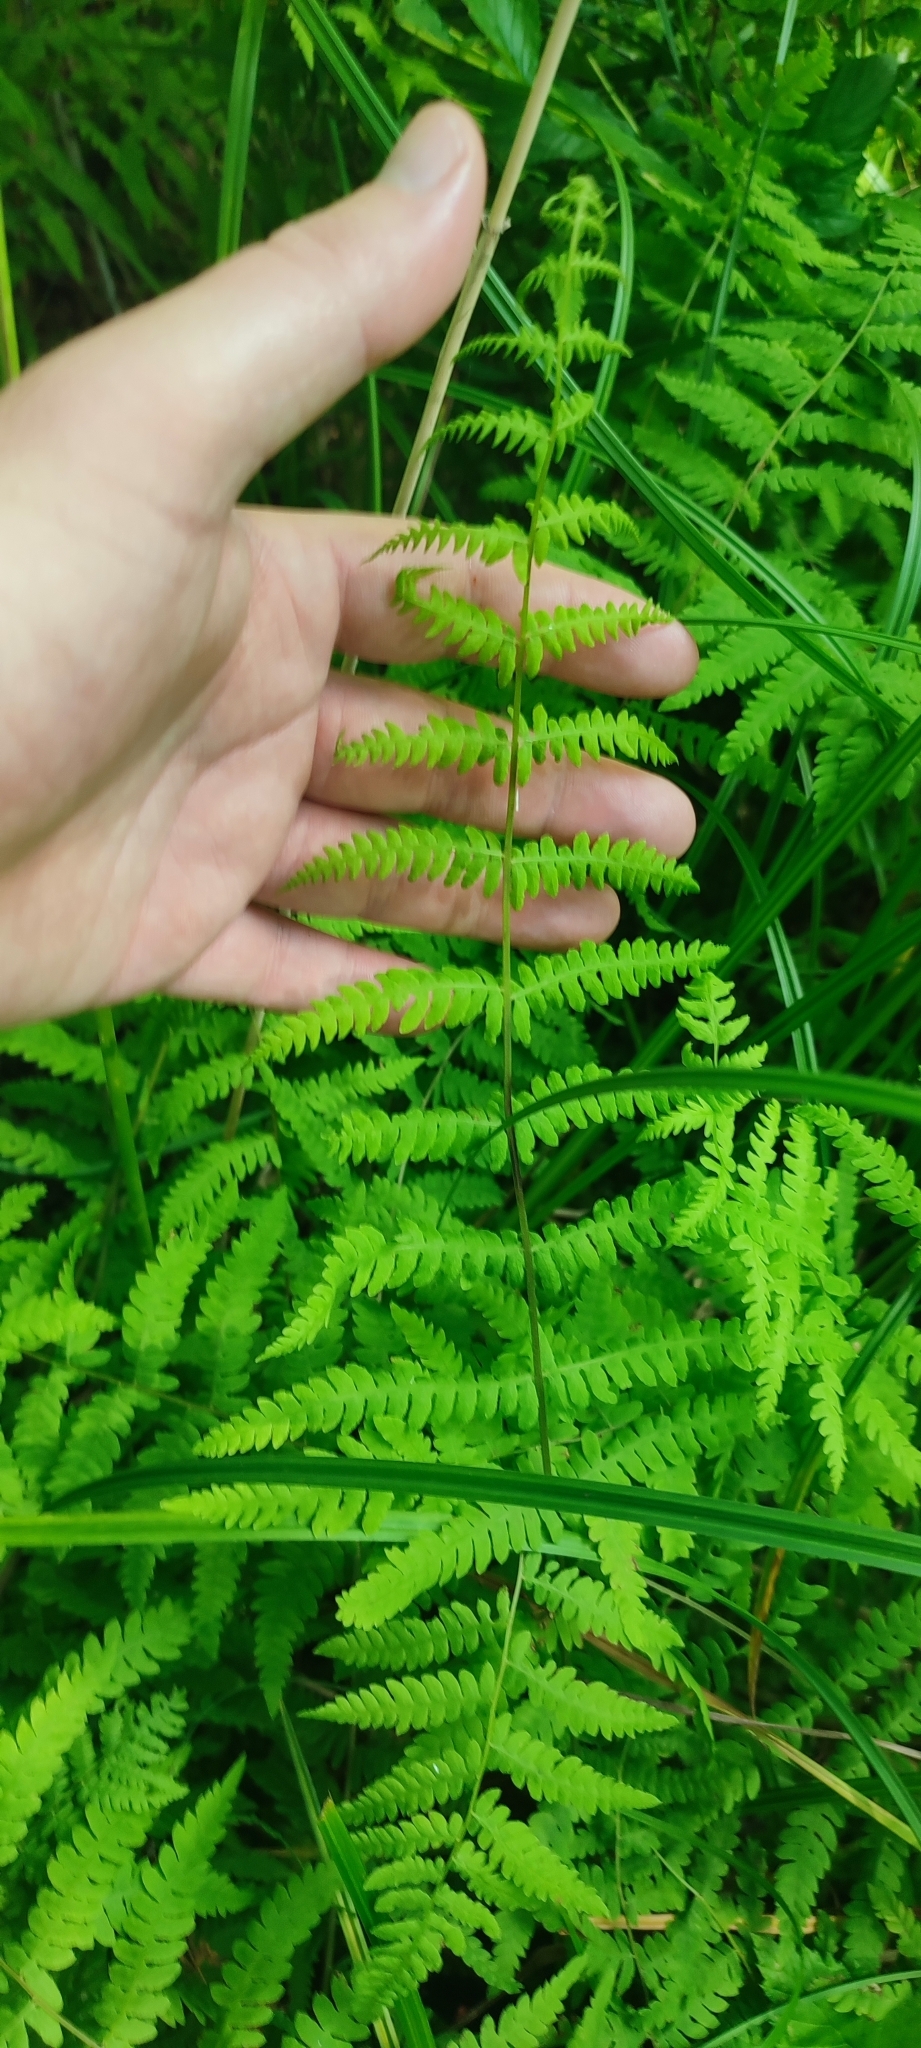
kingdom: Plantae
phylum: Tracheophyta
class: Polypodiopsida
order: Polypodiales
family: Thelypteridaceae
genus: Thelypteris
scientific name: Thelypteris palustris
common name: Marsh fern
